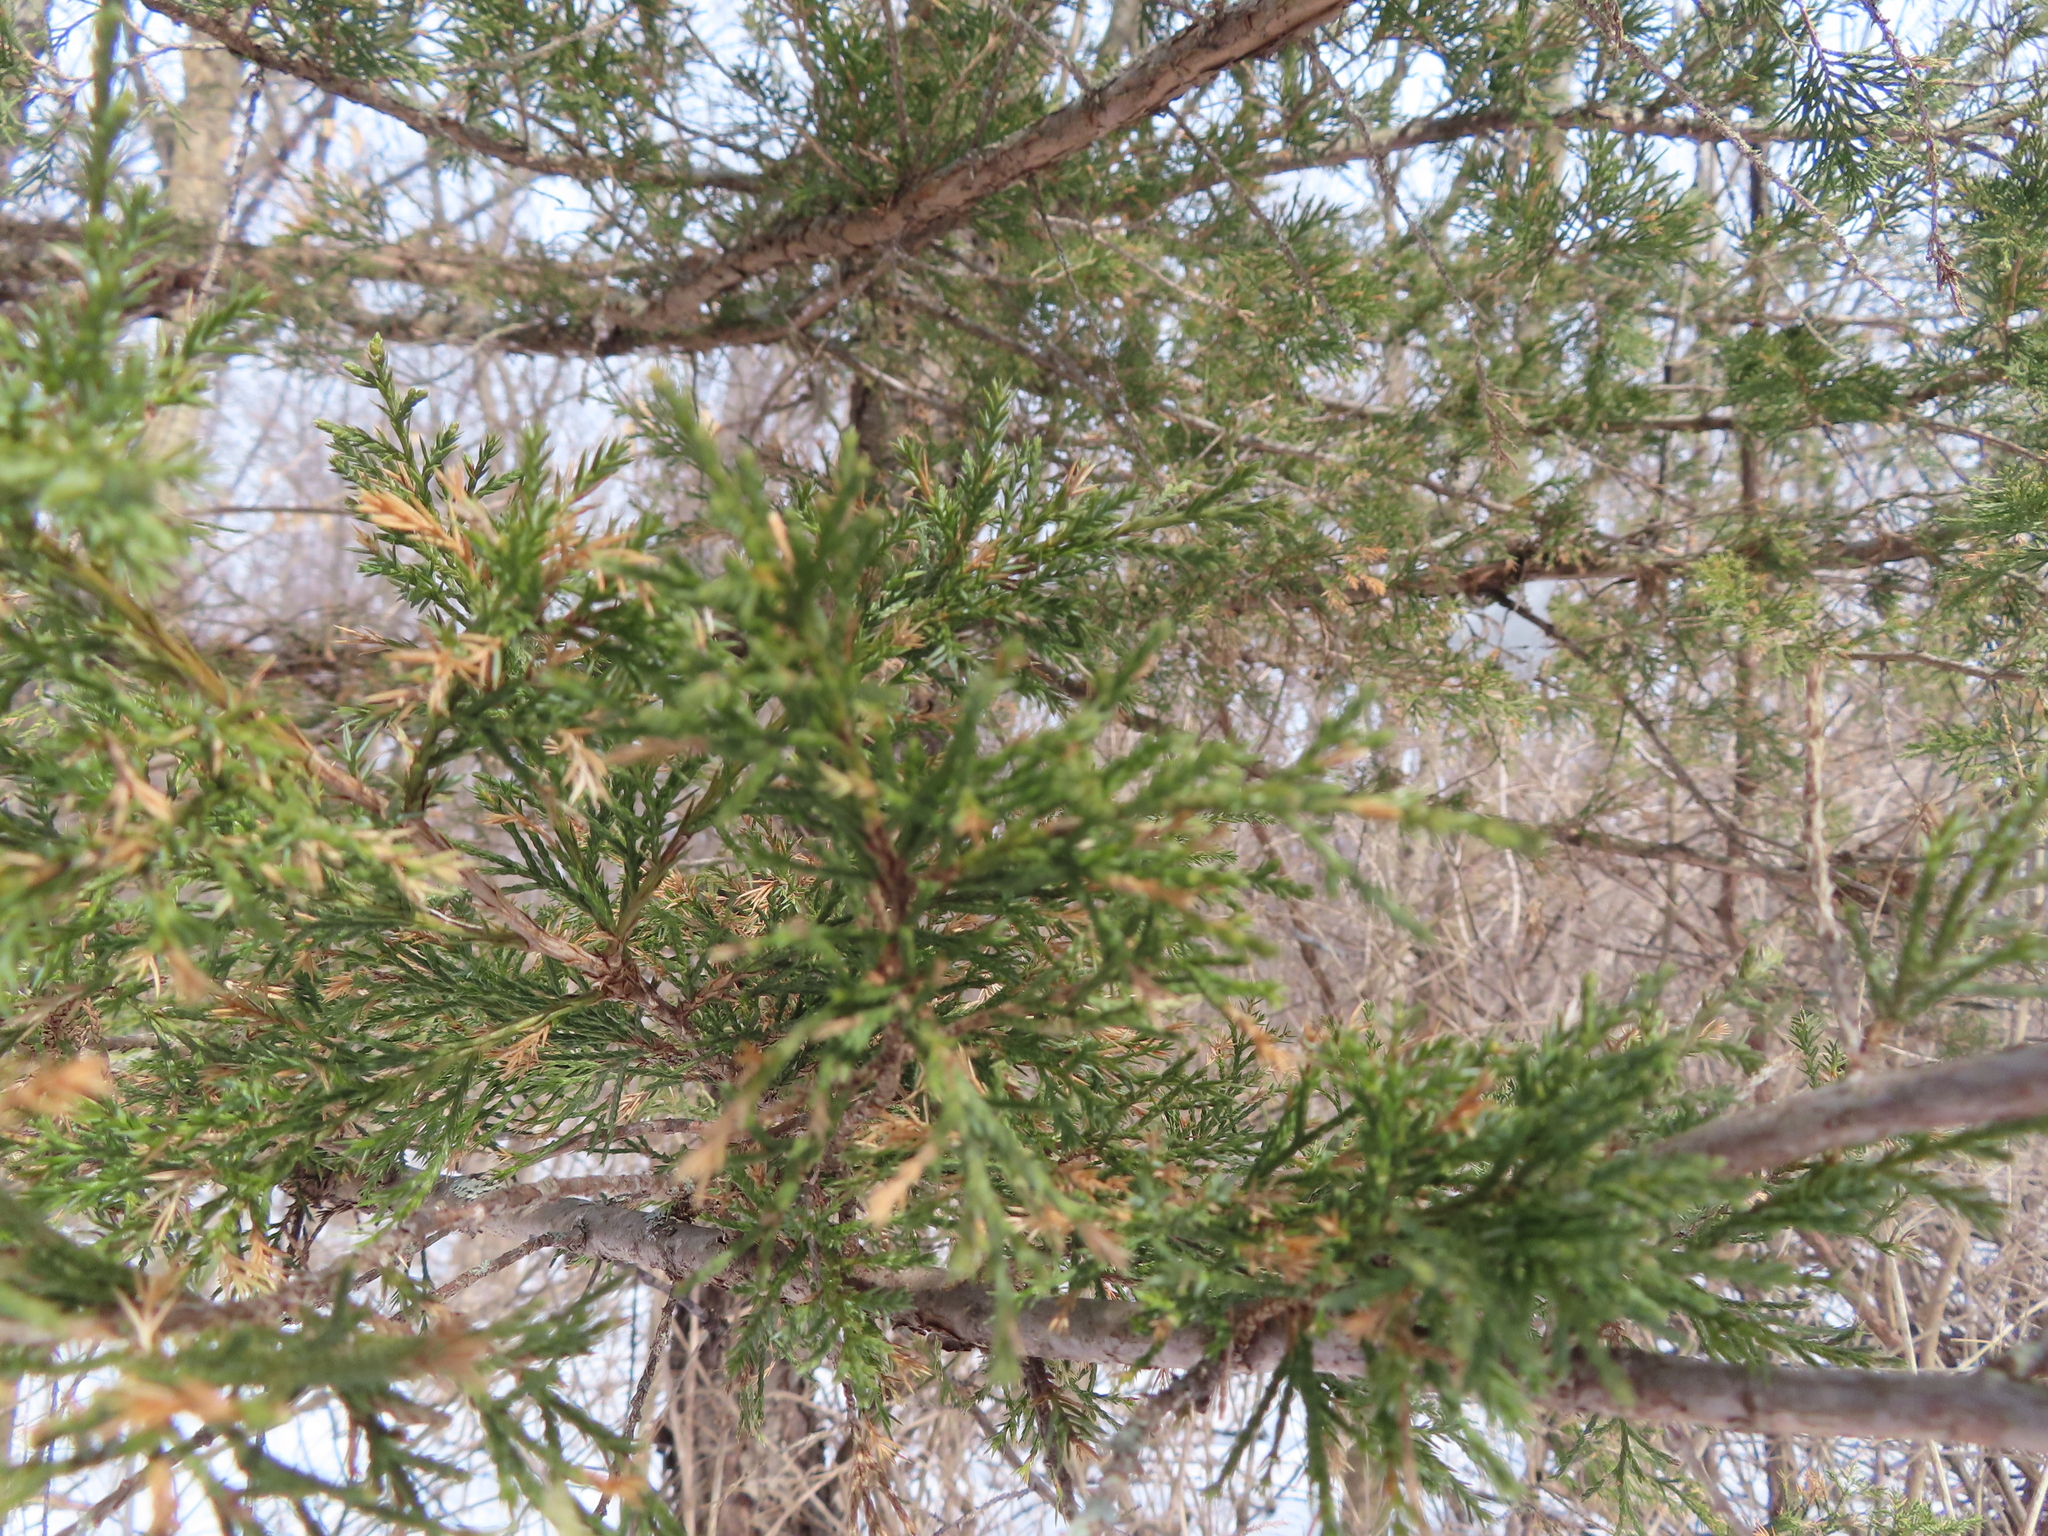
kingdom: Plantae
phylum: Tracheophyta
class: Pinopsida
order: Pinales
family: Cupressaceae
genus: Juniperus
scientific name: Juniperus virginiana
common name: Red juniper
